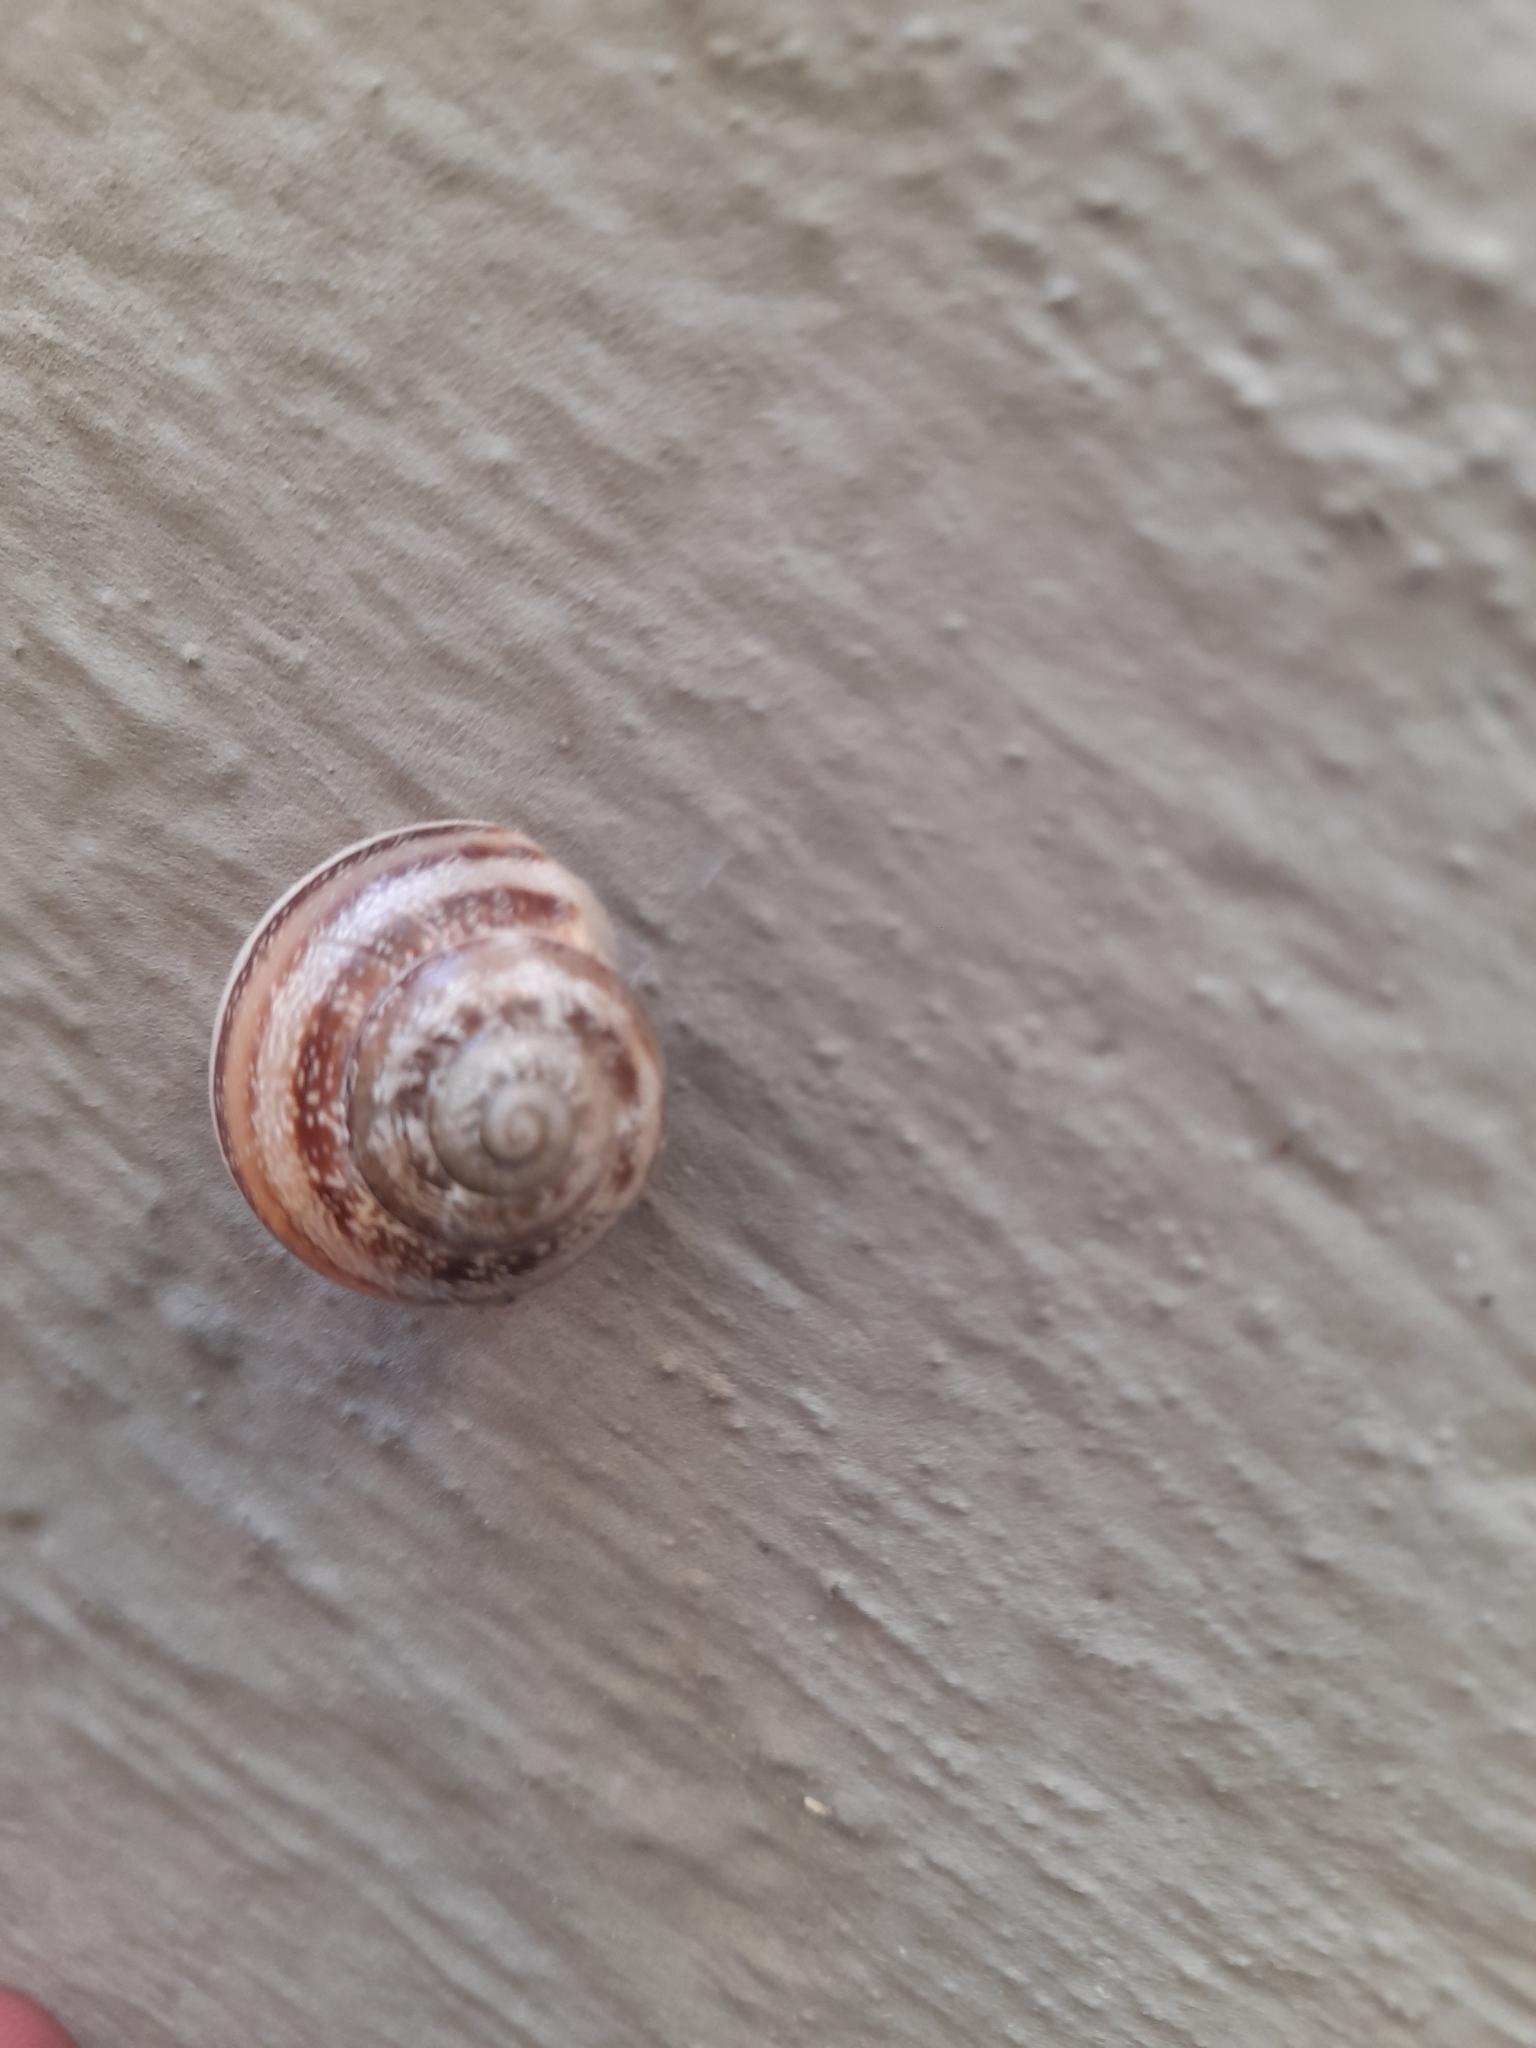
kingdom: Animalia
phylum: Mollusca
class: Gastropoda
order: Stylommatophora
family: Helicidae
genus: Eobania
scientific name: Eobania vermiculata
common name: Chocolateband snail
